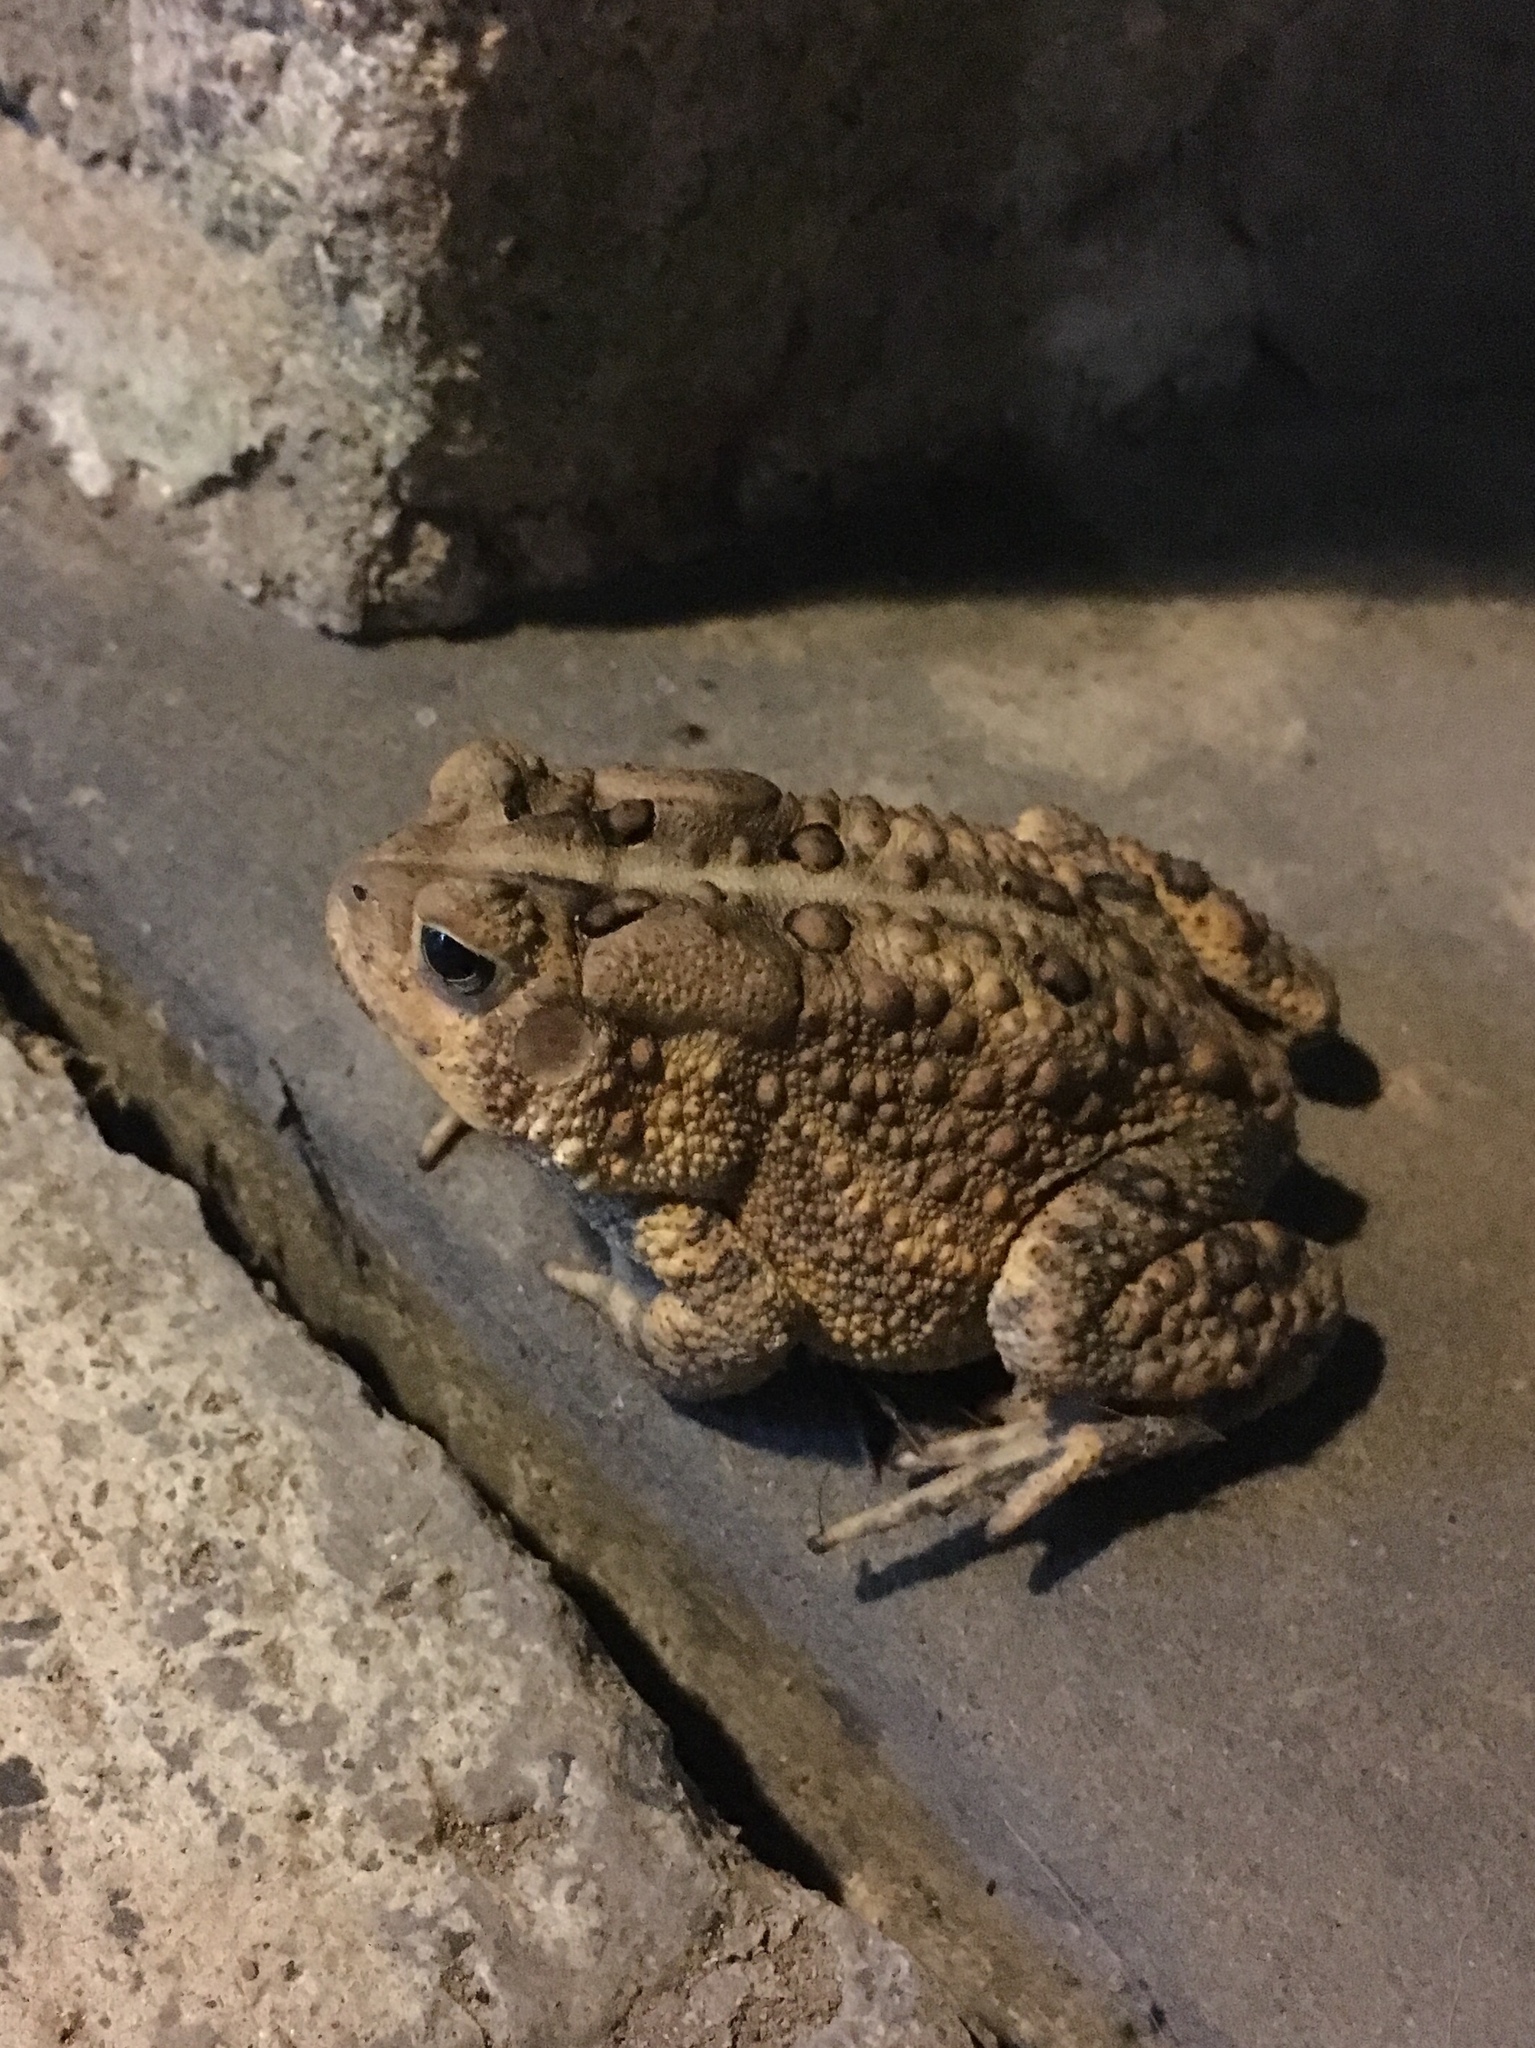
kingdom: Animalia
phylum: Chordata
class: Amphibia
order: Anura
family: Bufonidae
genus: Anaxyrus
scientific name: Anaxyrus americanus
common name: American toad
